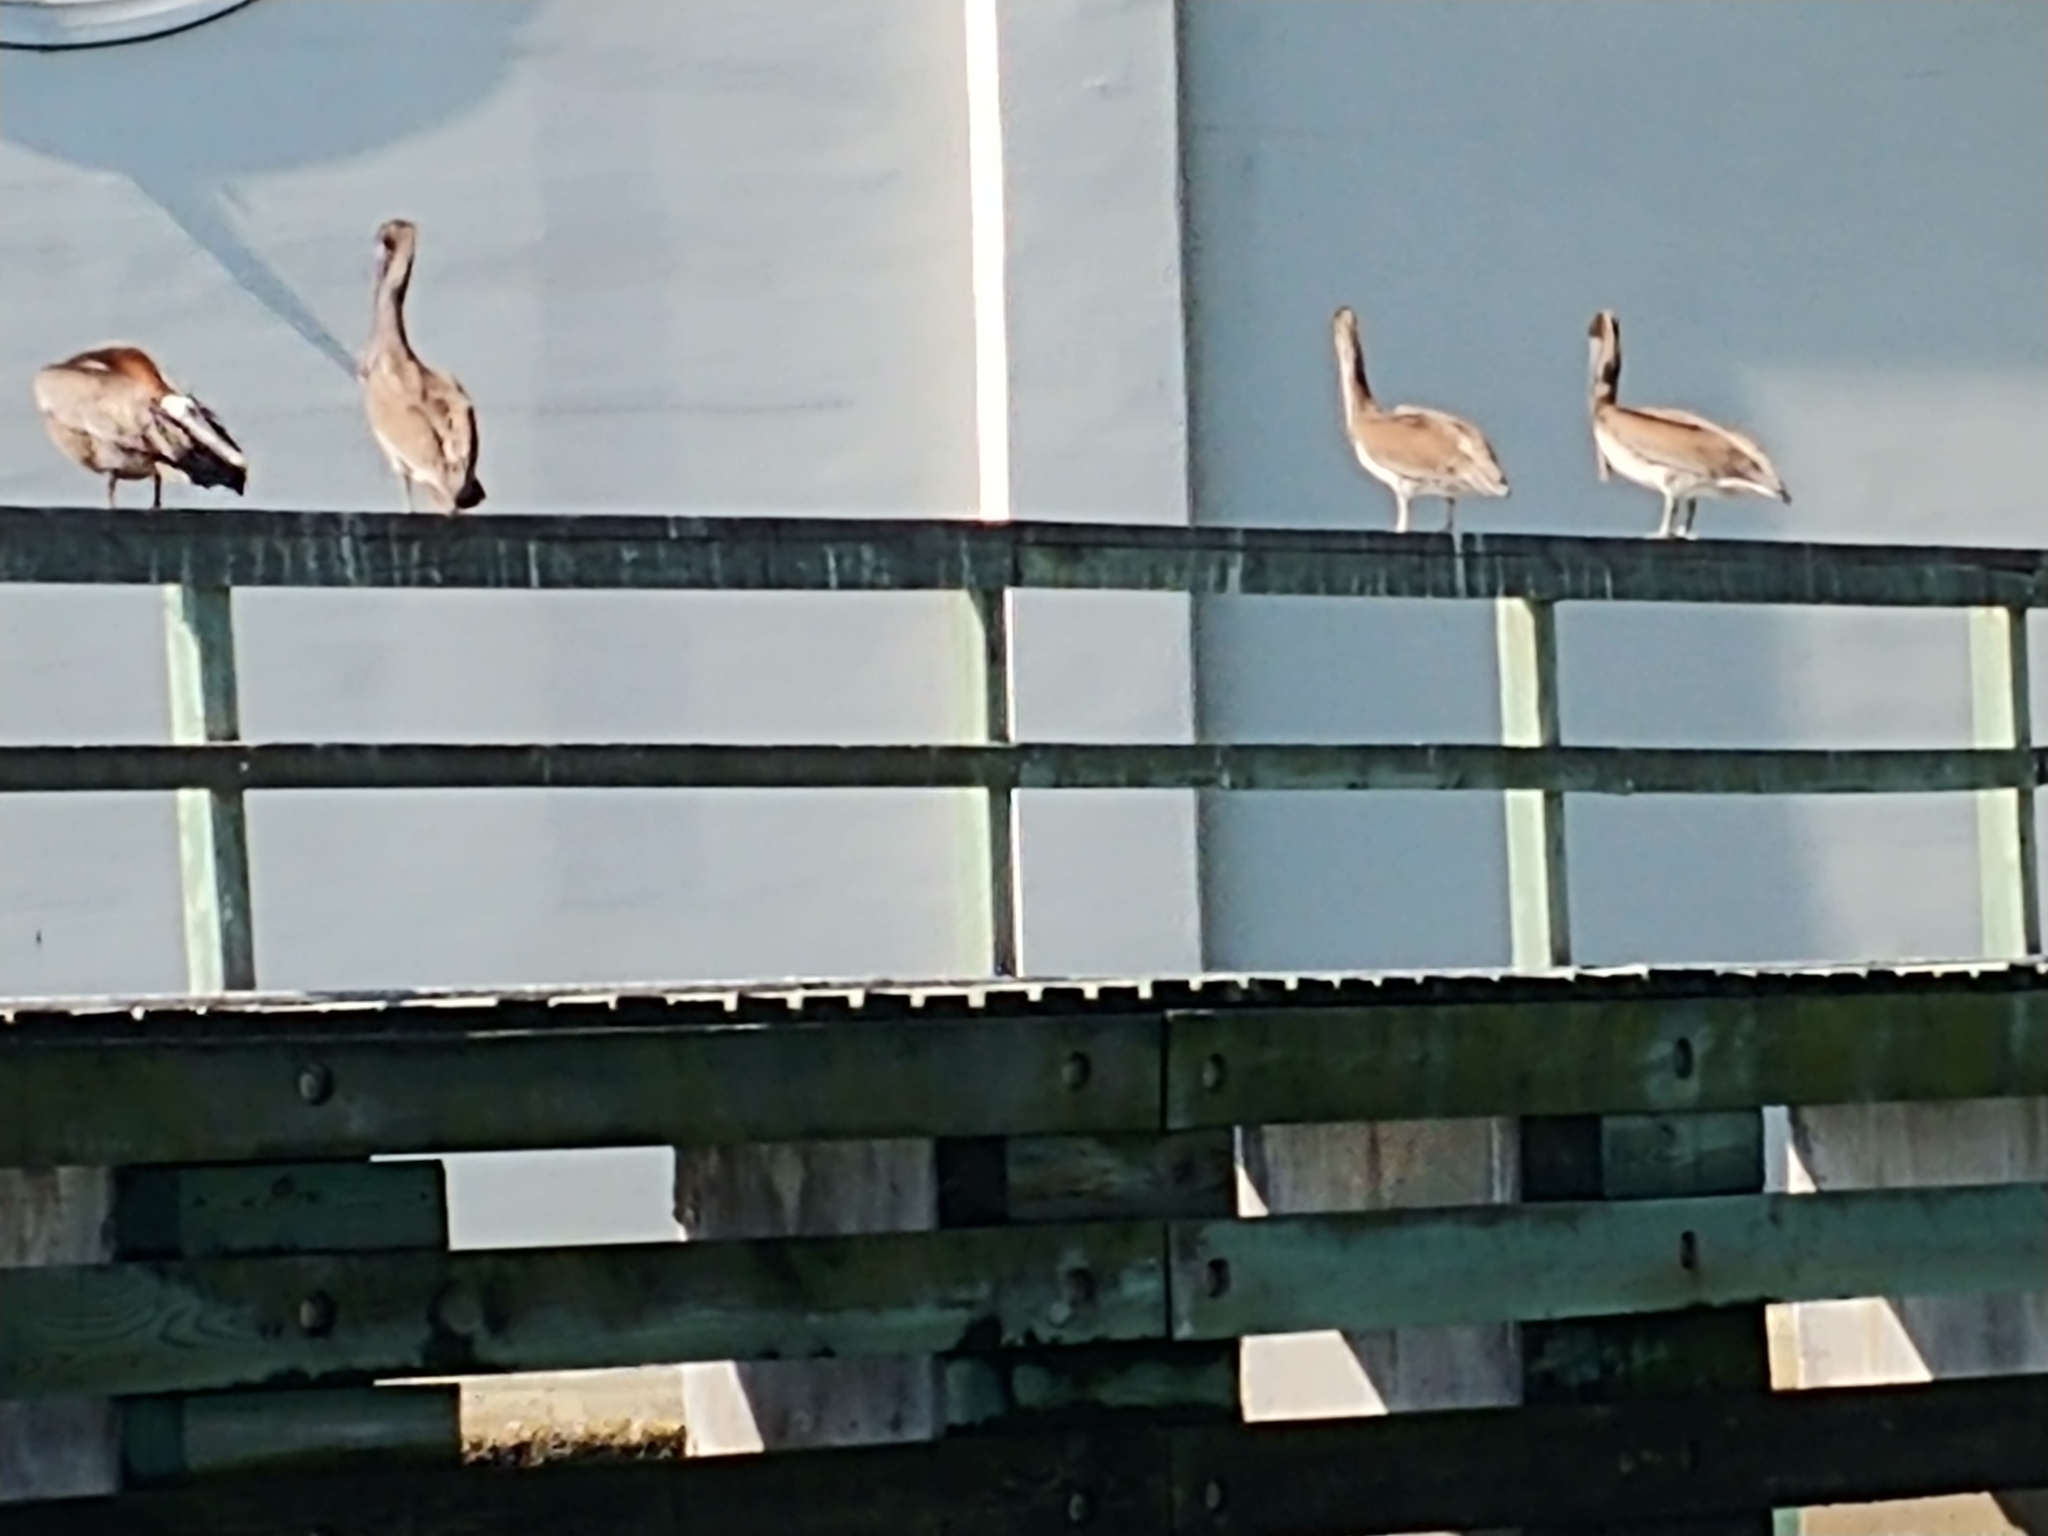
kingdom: Animalia
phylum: Chordata
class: Aves
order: Pelecaniformes
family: Pelecanidae
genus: Pelecanus
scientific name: Pelecanus occidentalis
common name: Brown pelican
